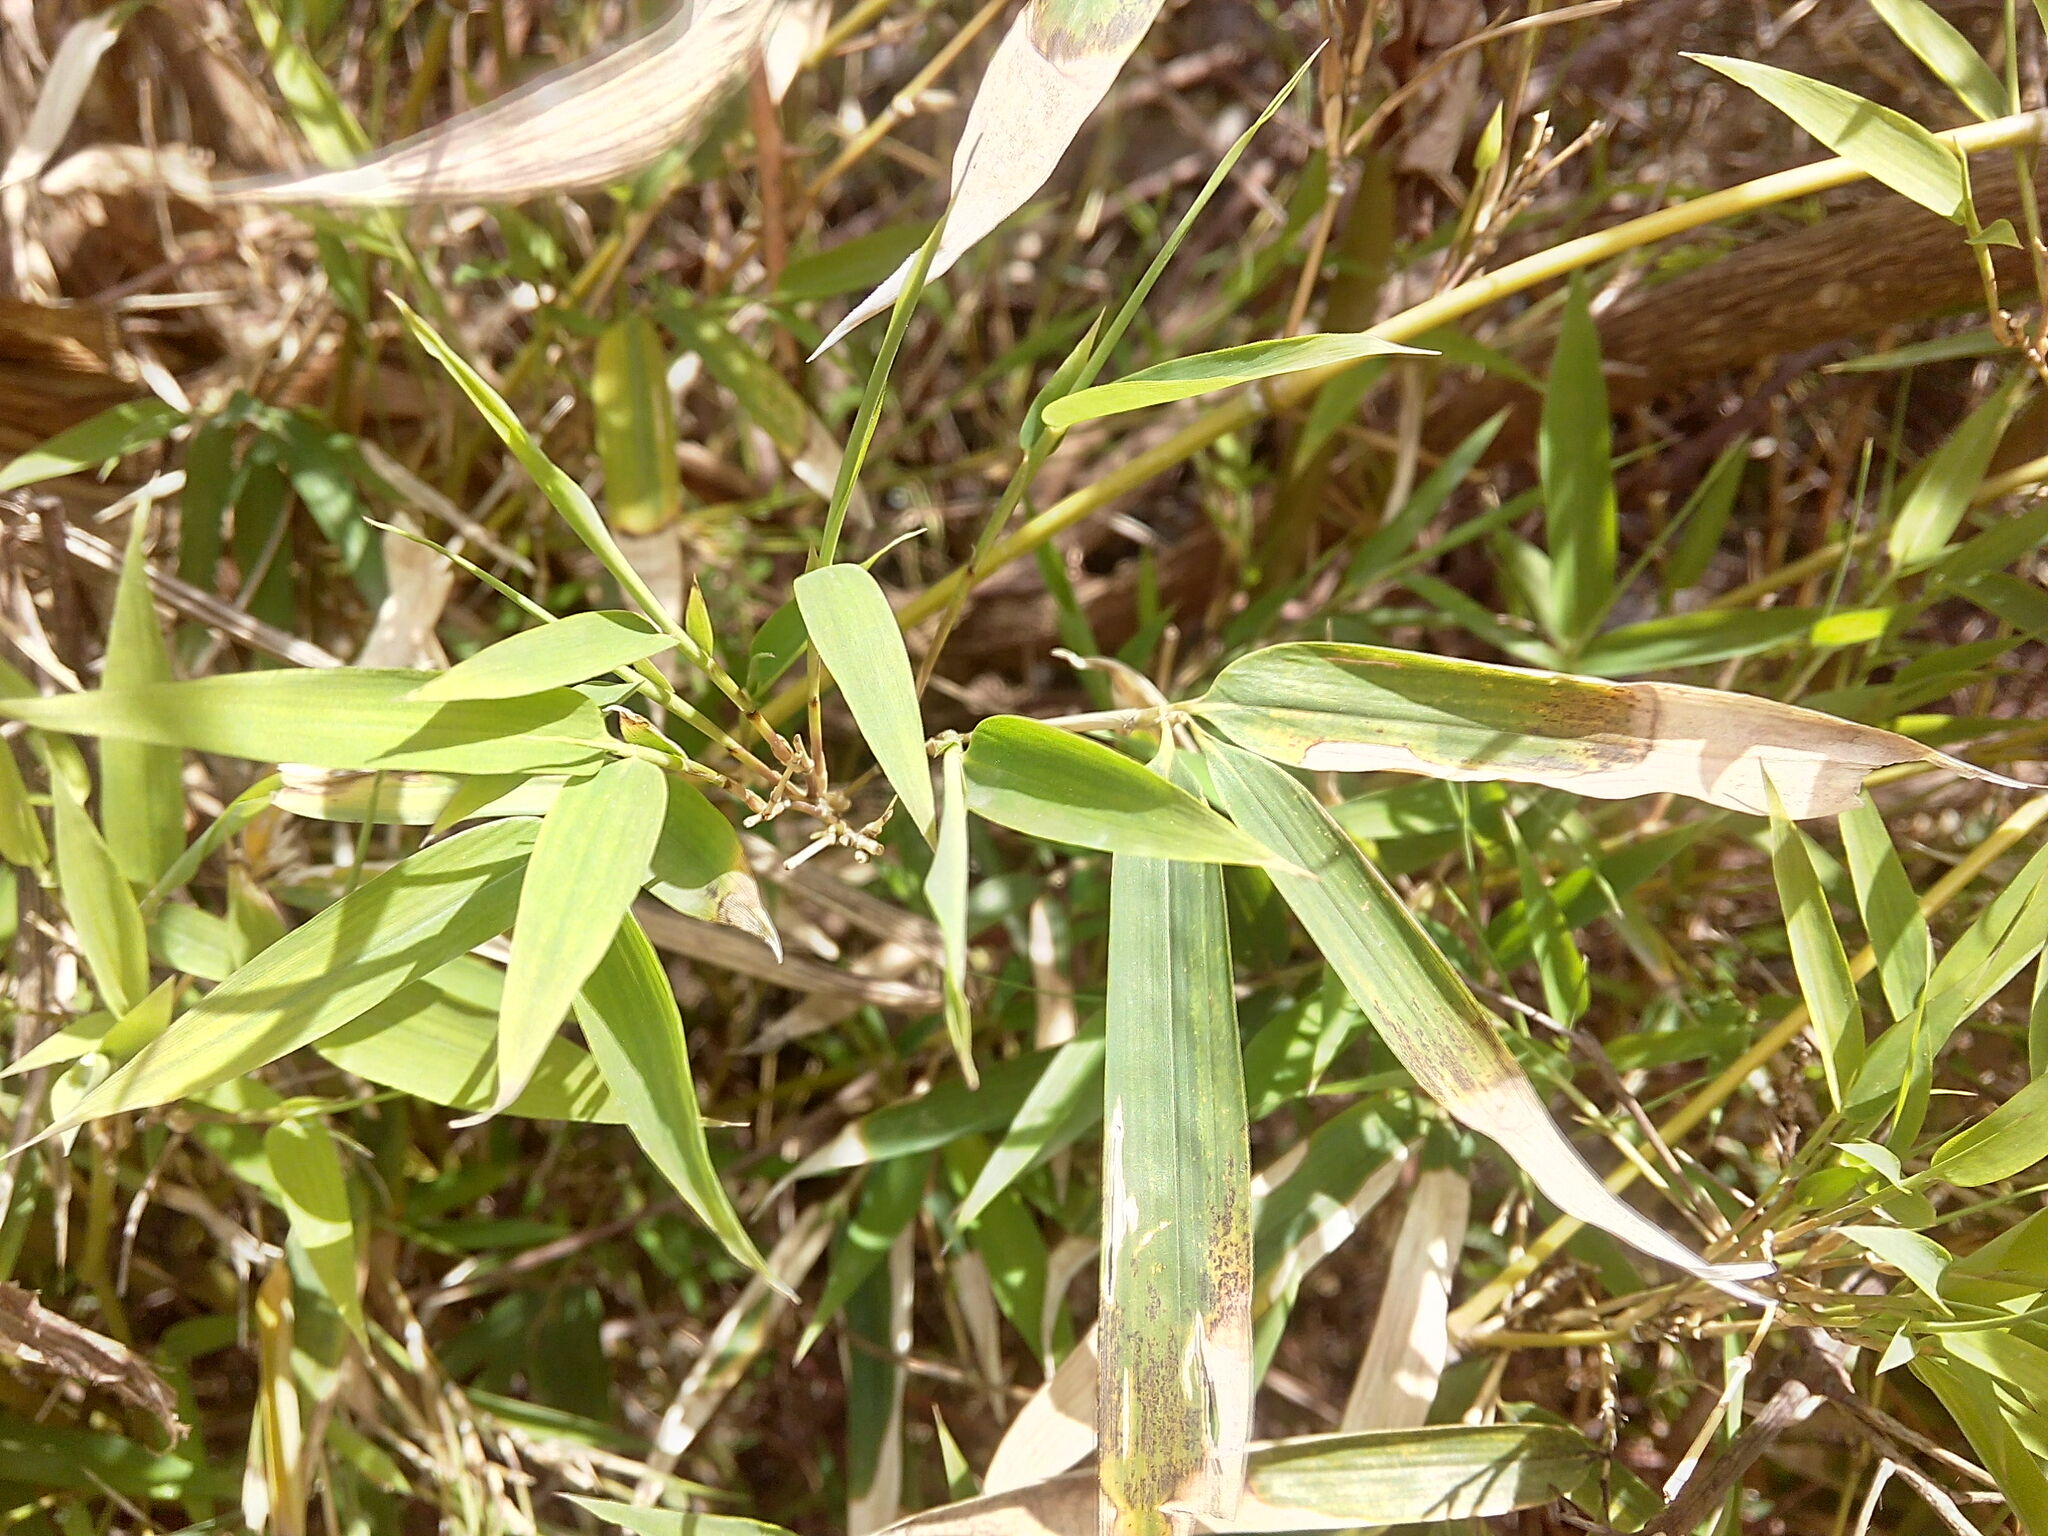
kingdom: Plantae
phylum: Tracheophyta
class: Liliopsida
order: Poales
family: Poaceae
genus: Phyllostachys
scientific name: Phyllostachys aurea
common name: Golden bamboo
